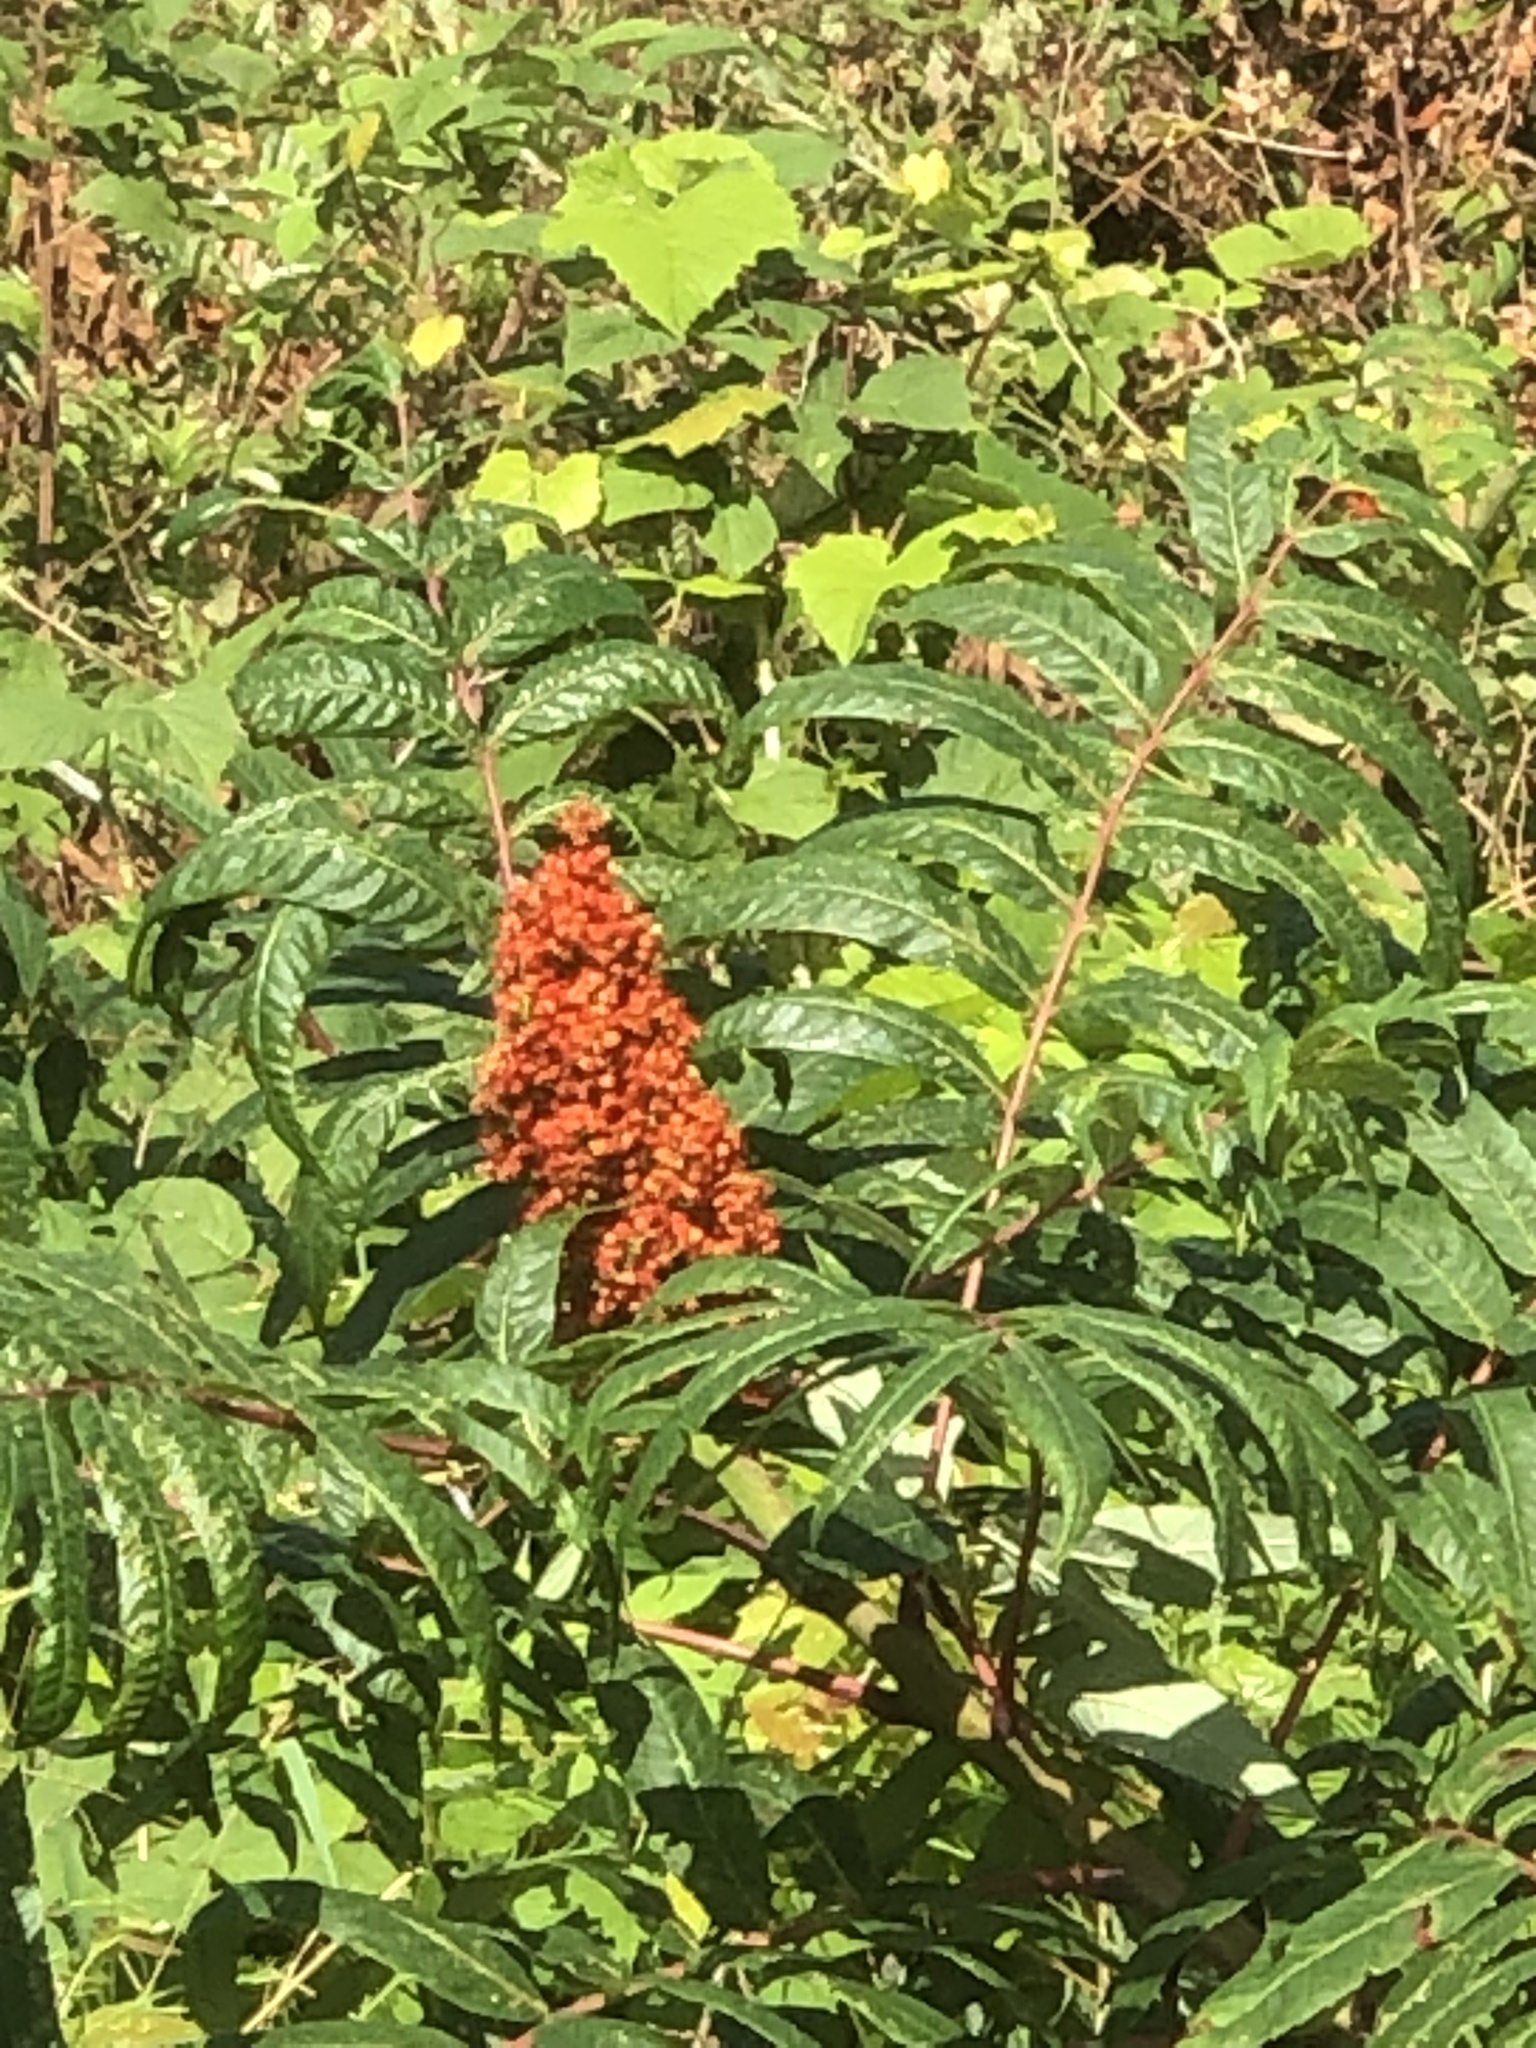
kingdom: Plantae
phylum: Tracheophyta
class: Magnoliopsida
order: Sapindales
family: Anacardiaceae
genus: Rhus
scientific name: Rhus glabra
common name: Scarlet sumac
